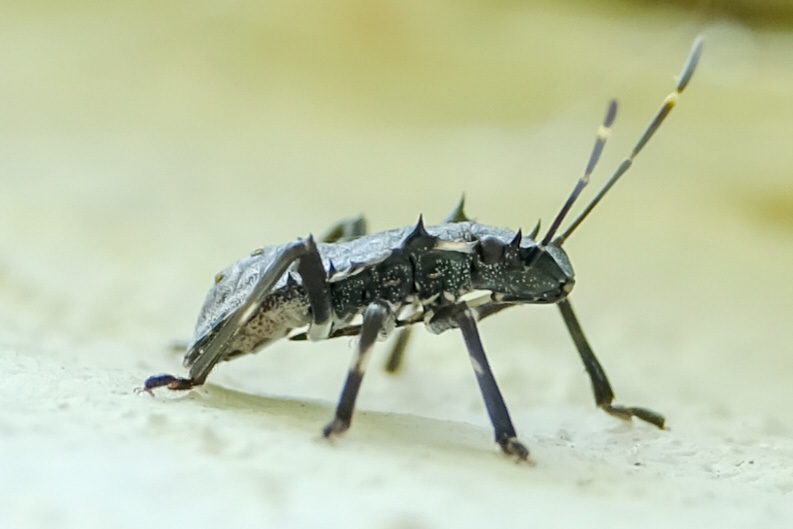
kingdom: Animalia
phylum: Arthropoda
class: Insecta
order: Hemiptera
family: Pentatomidae
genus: Halyomorpha
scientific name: Halyomorpha halys
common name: Brown marmorated stink bug
